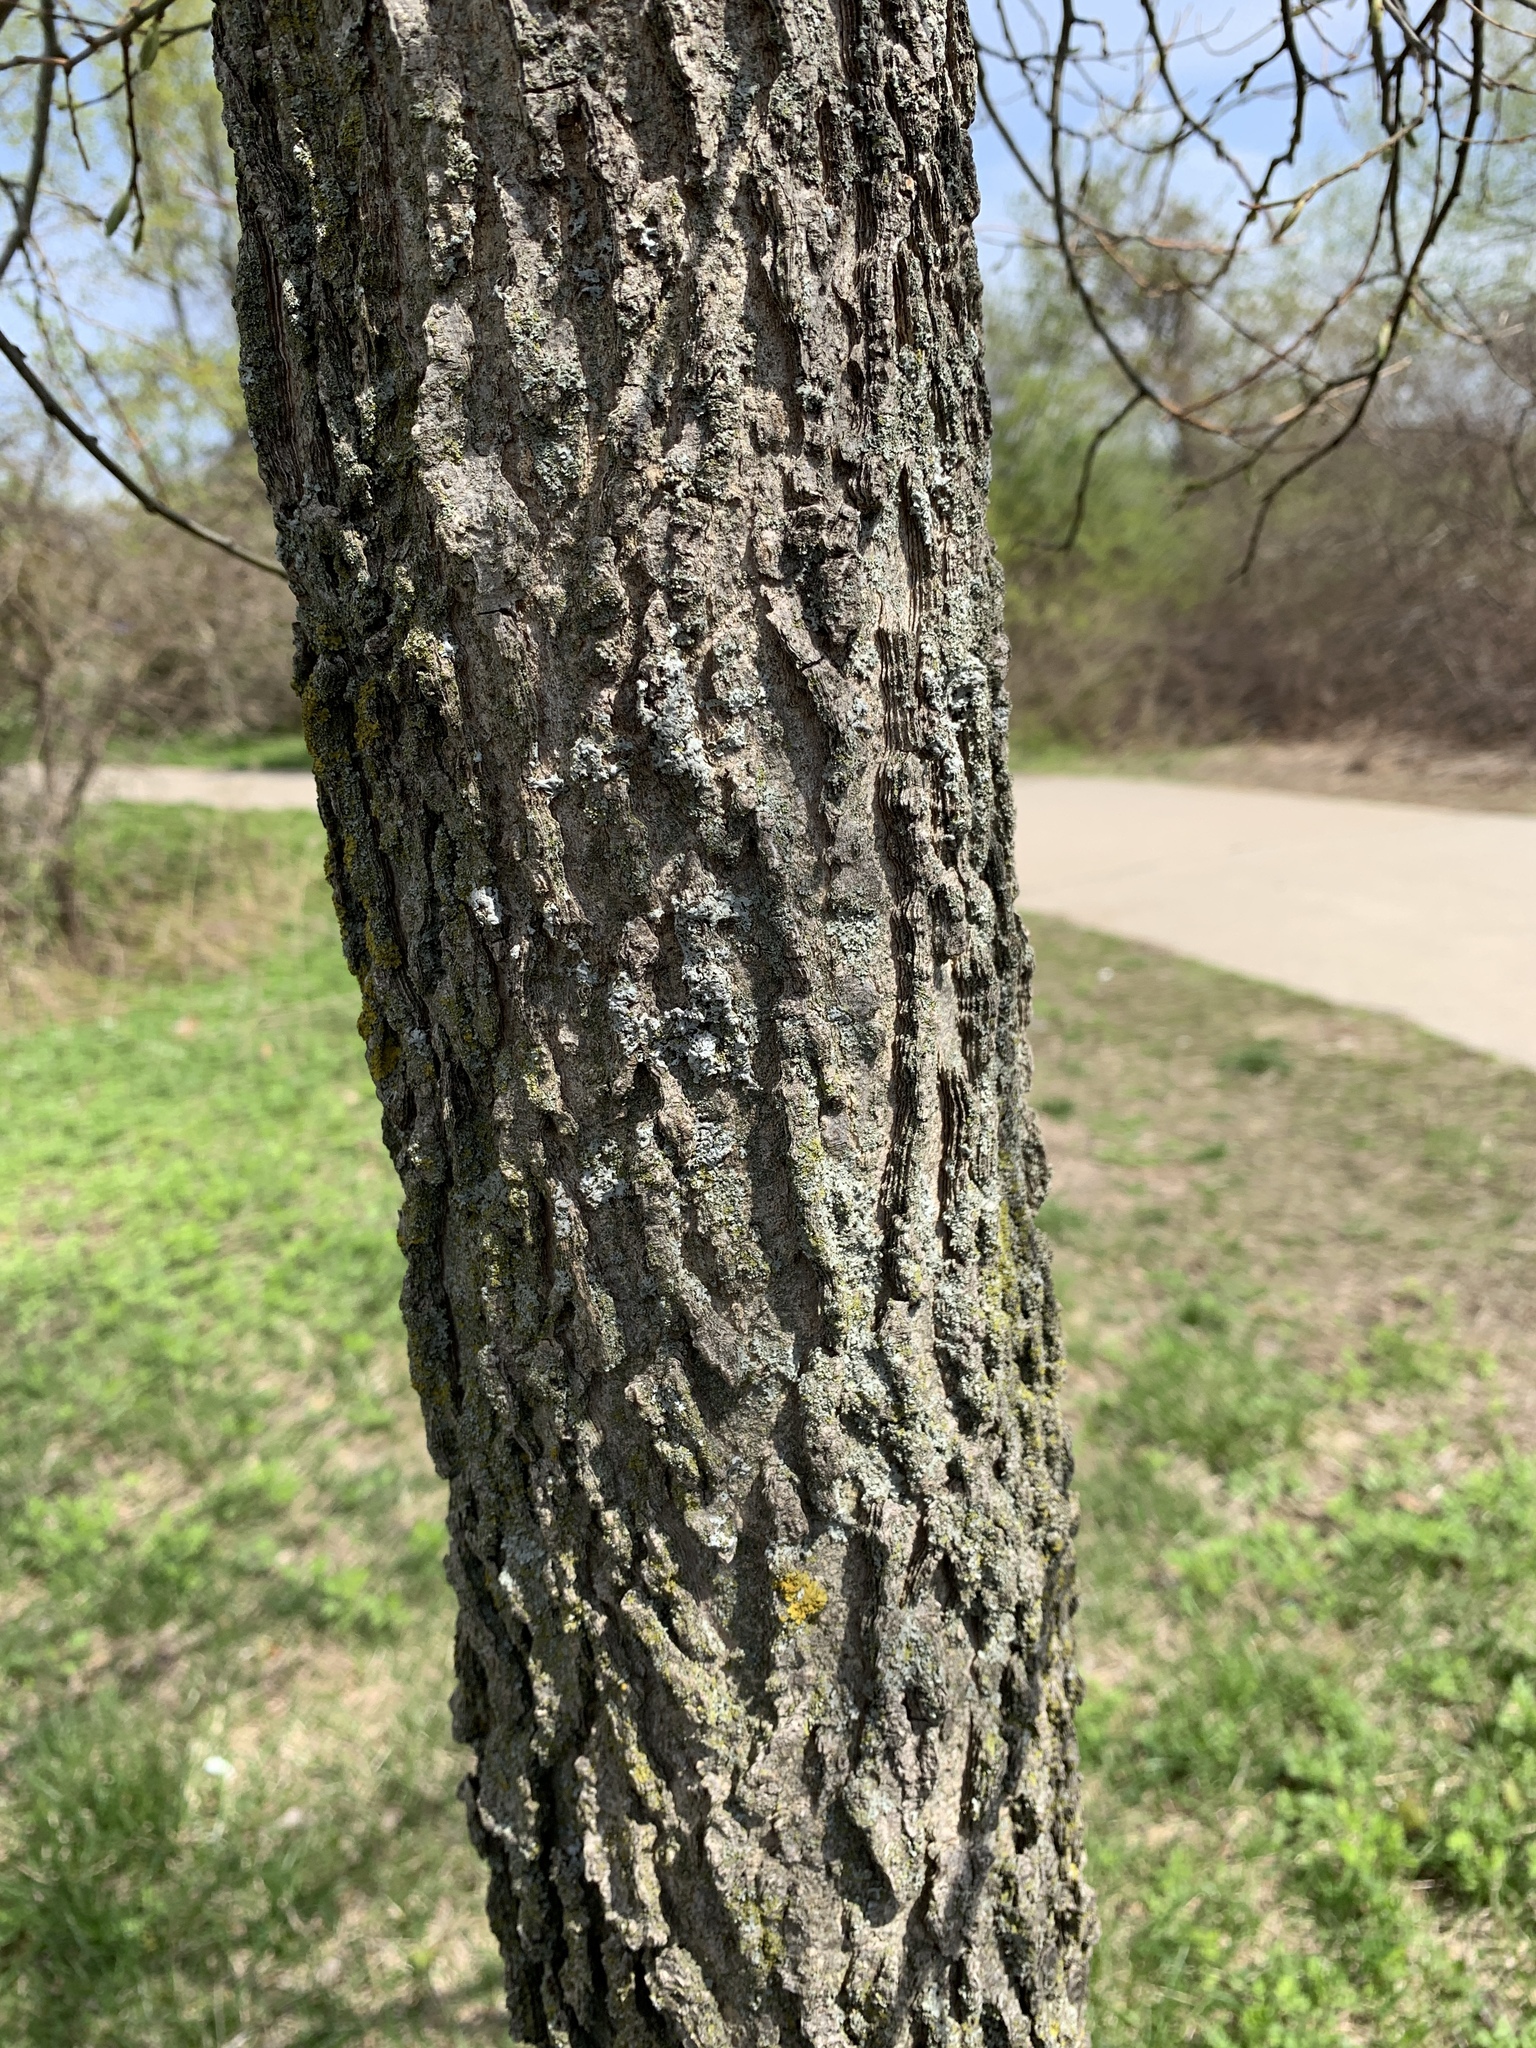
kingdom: Plantae
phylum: Tracheophyta
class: Magnoliopsida
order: Rosales
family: Cannabaceae
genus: Celtis
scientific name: Celtis occidentalis
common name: Common hackberry
